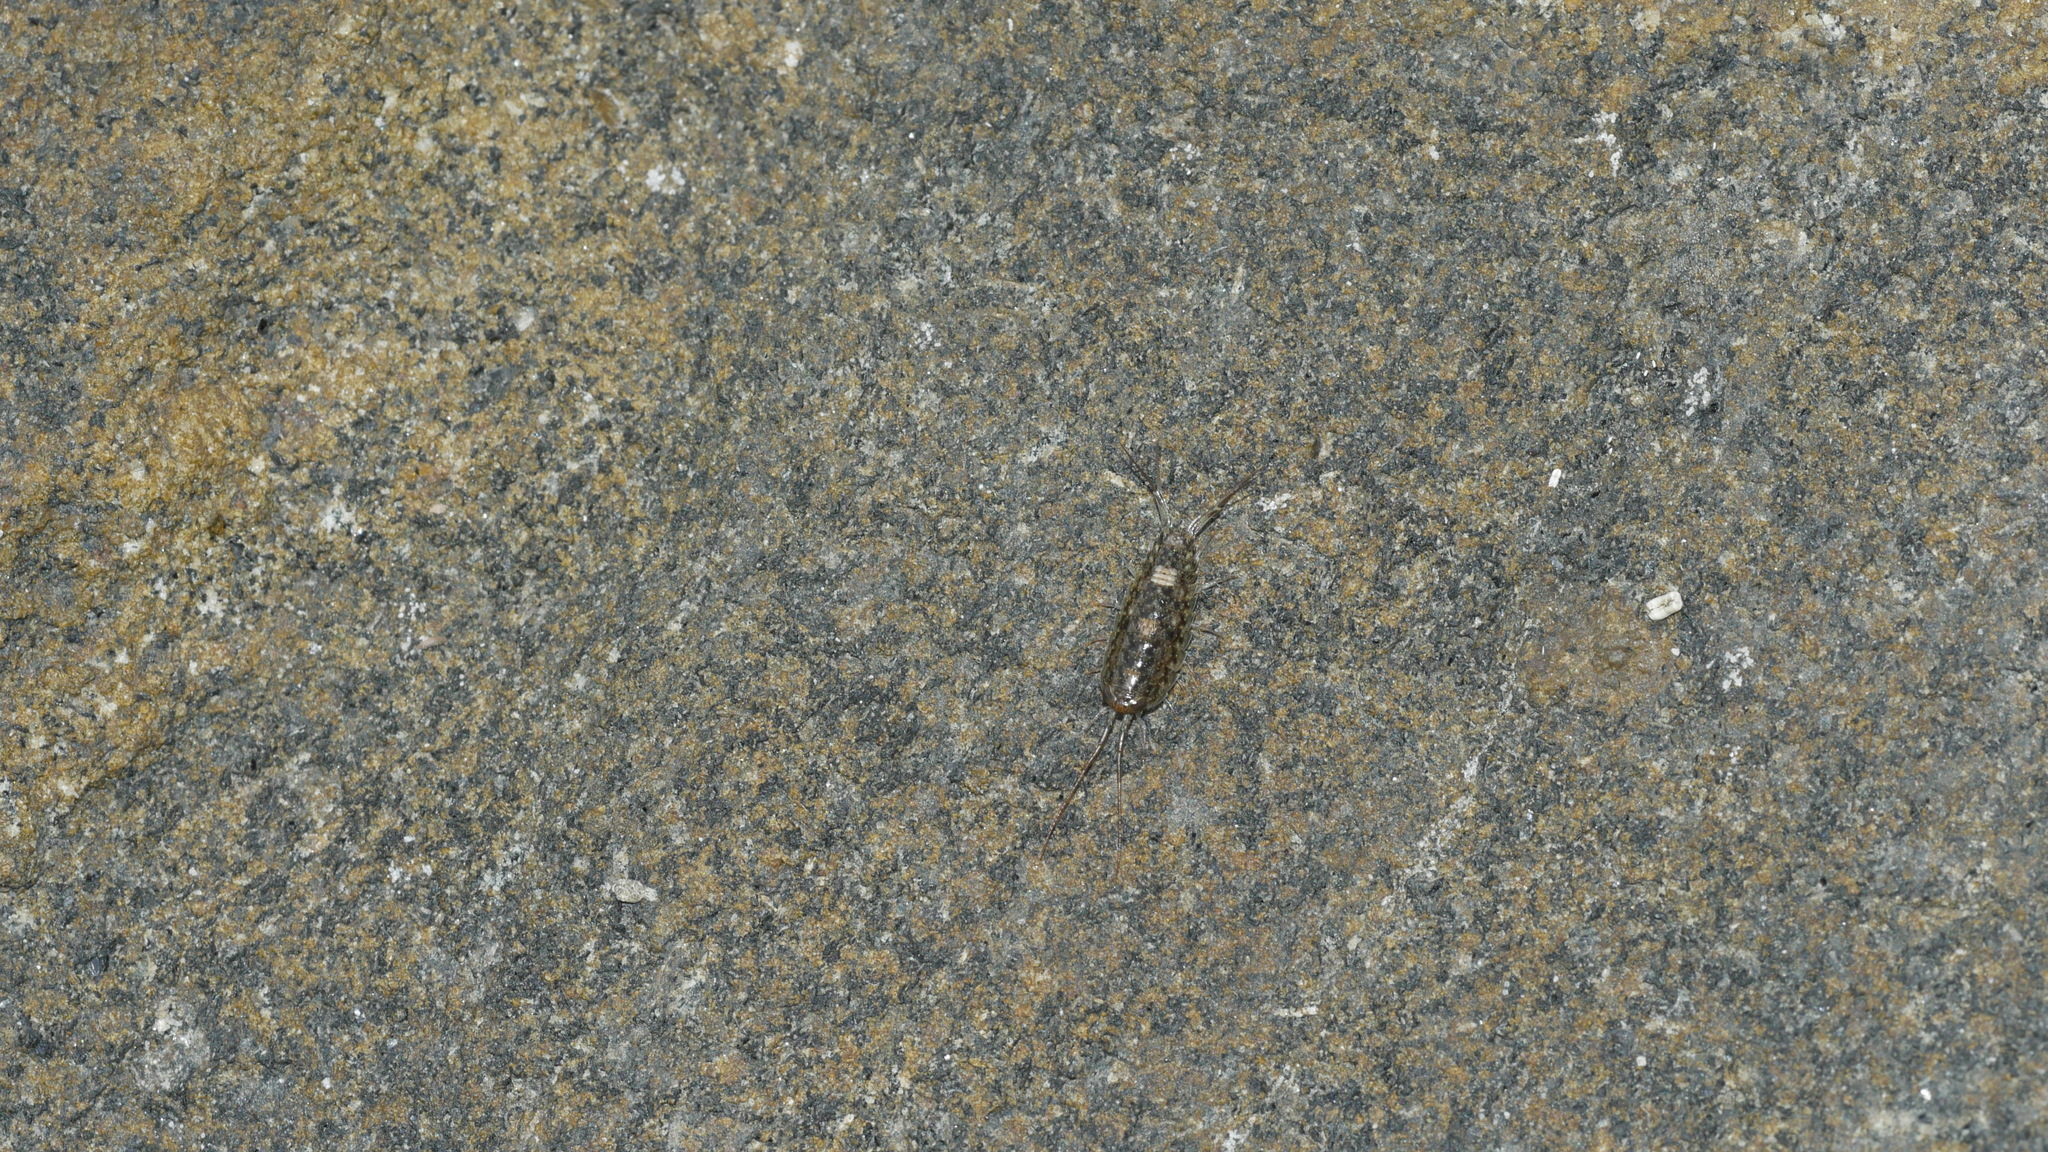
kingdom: Animalia
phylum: Arthropoda
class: Malacostraca
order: Isopoda
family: Ligiidae
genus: Ligia
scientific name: Ligia exotica
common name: Wharf roach
